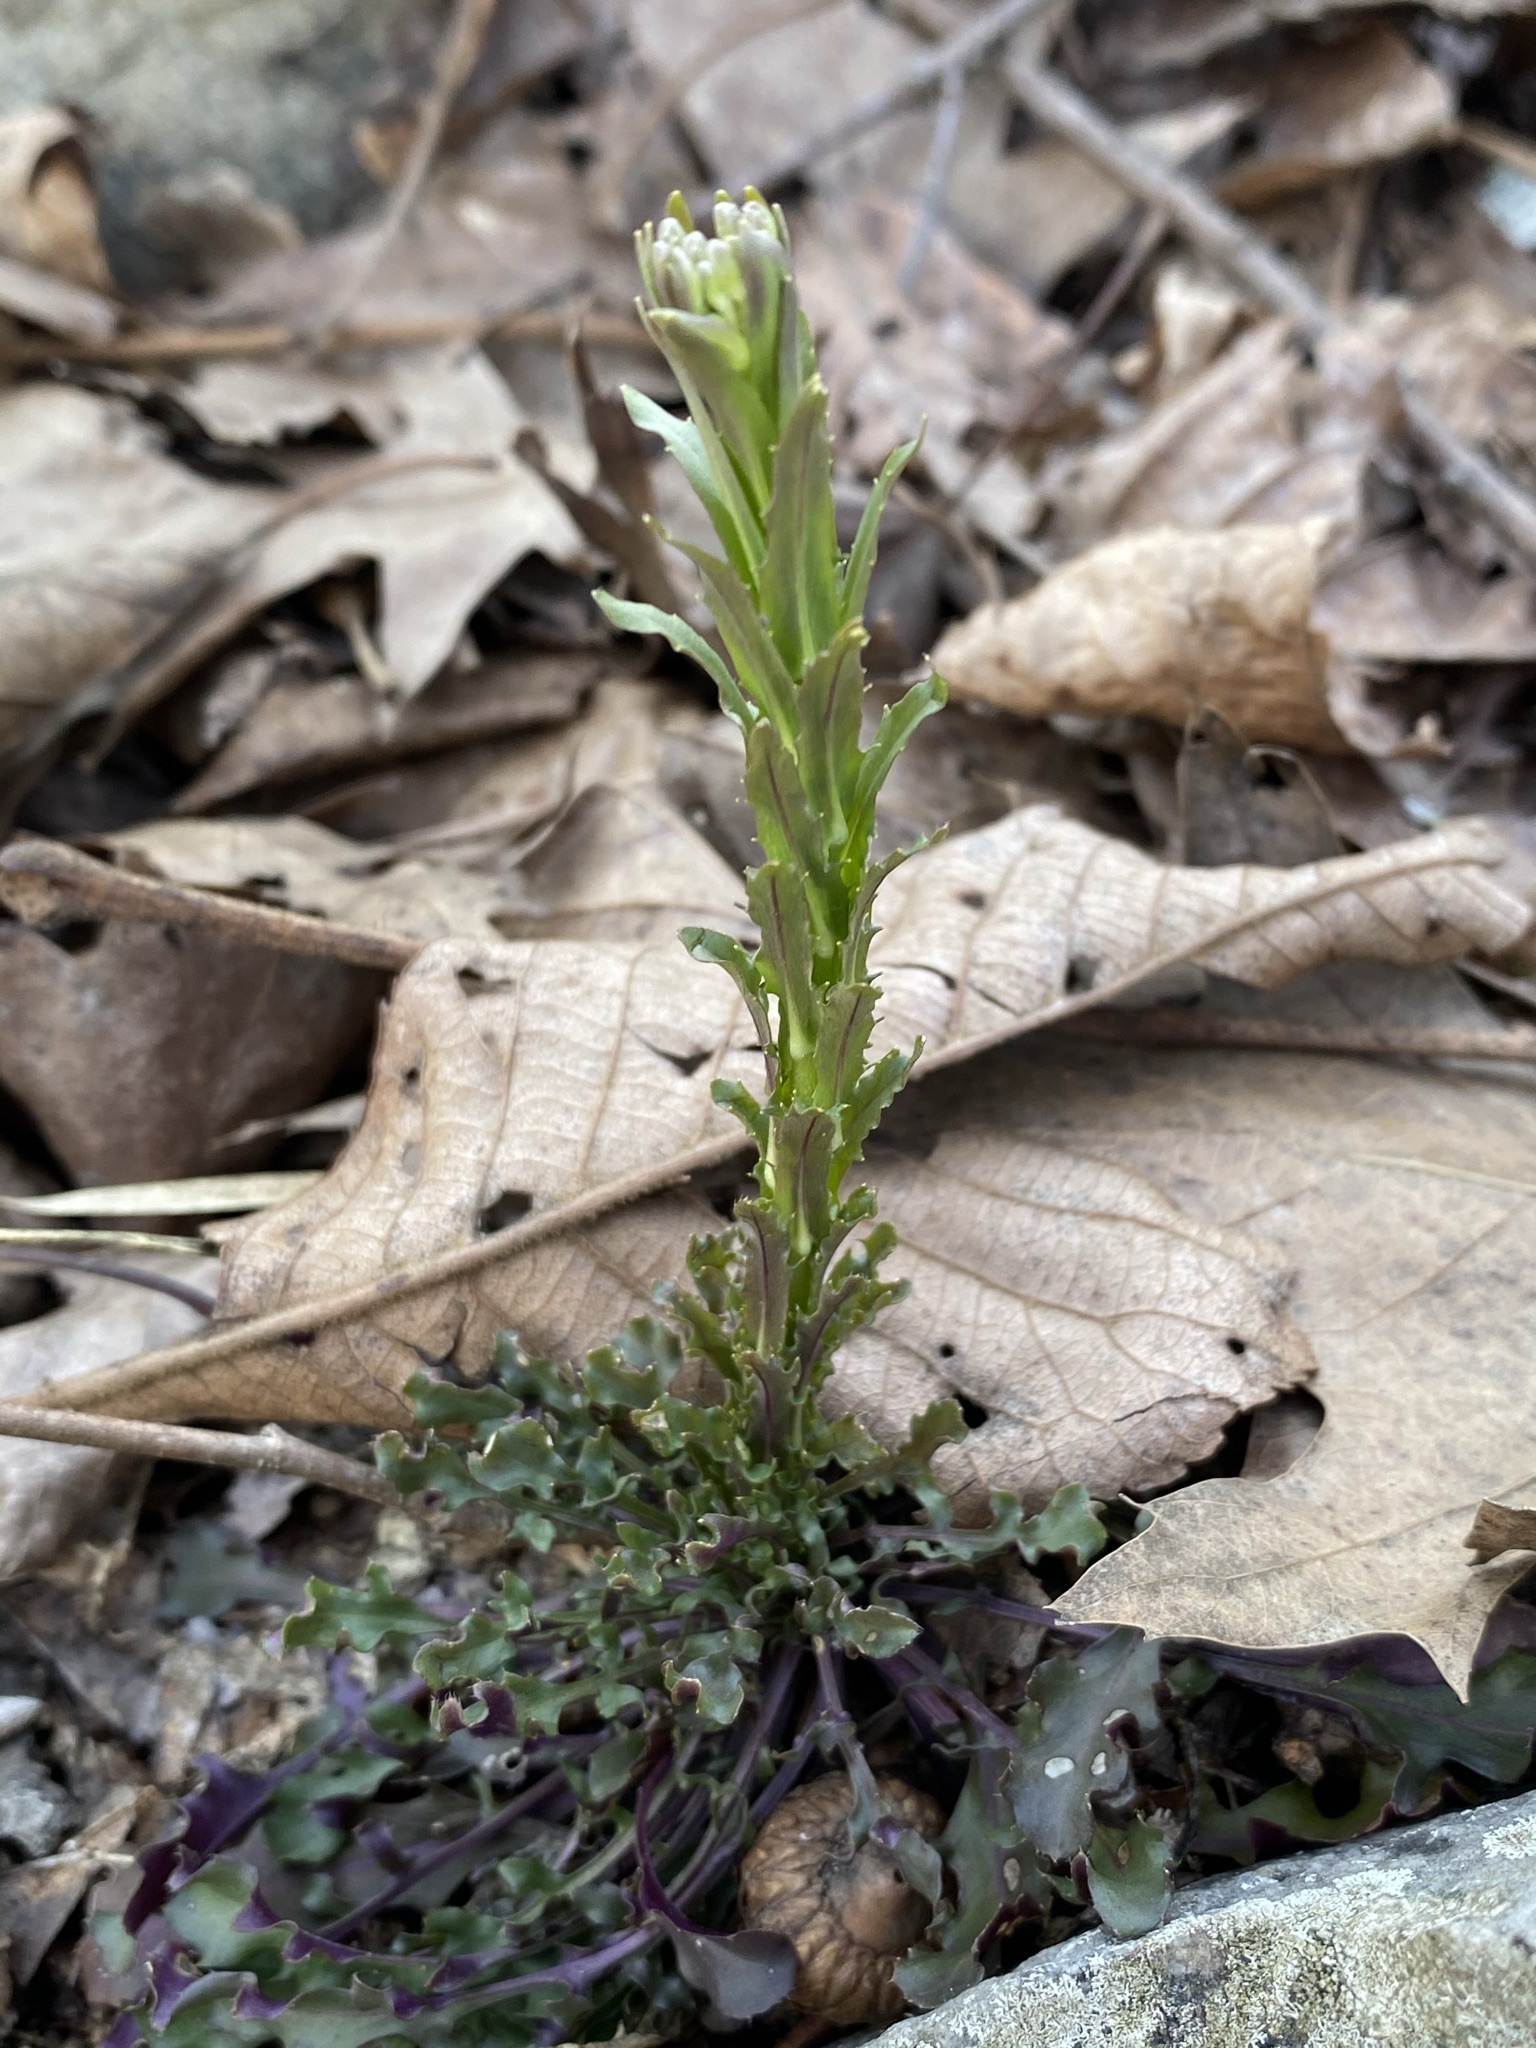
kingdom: Plantae
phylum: Tracheophyta
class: Magnoliopsida
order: Brassicales
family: Brassicaceae
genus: Borodinia
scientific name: Borodinia missouriensis
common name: Green rockcress
